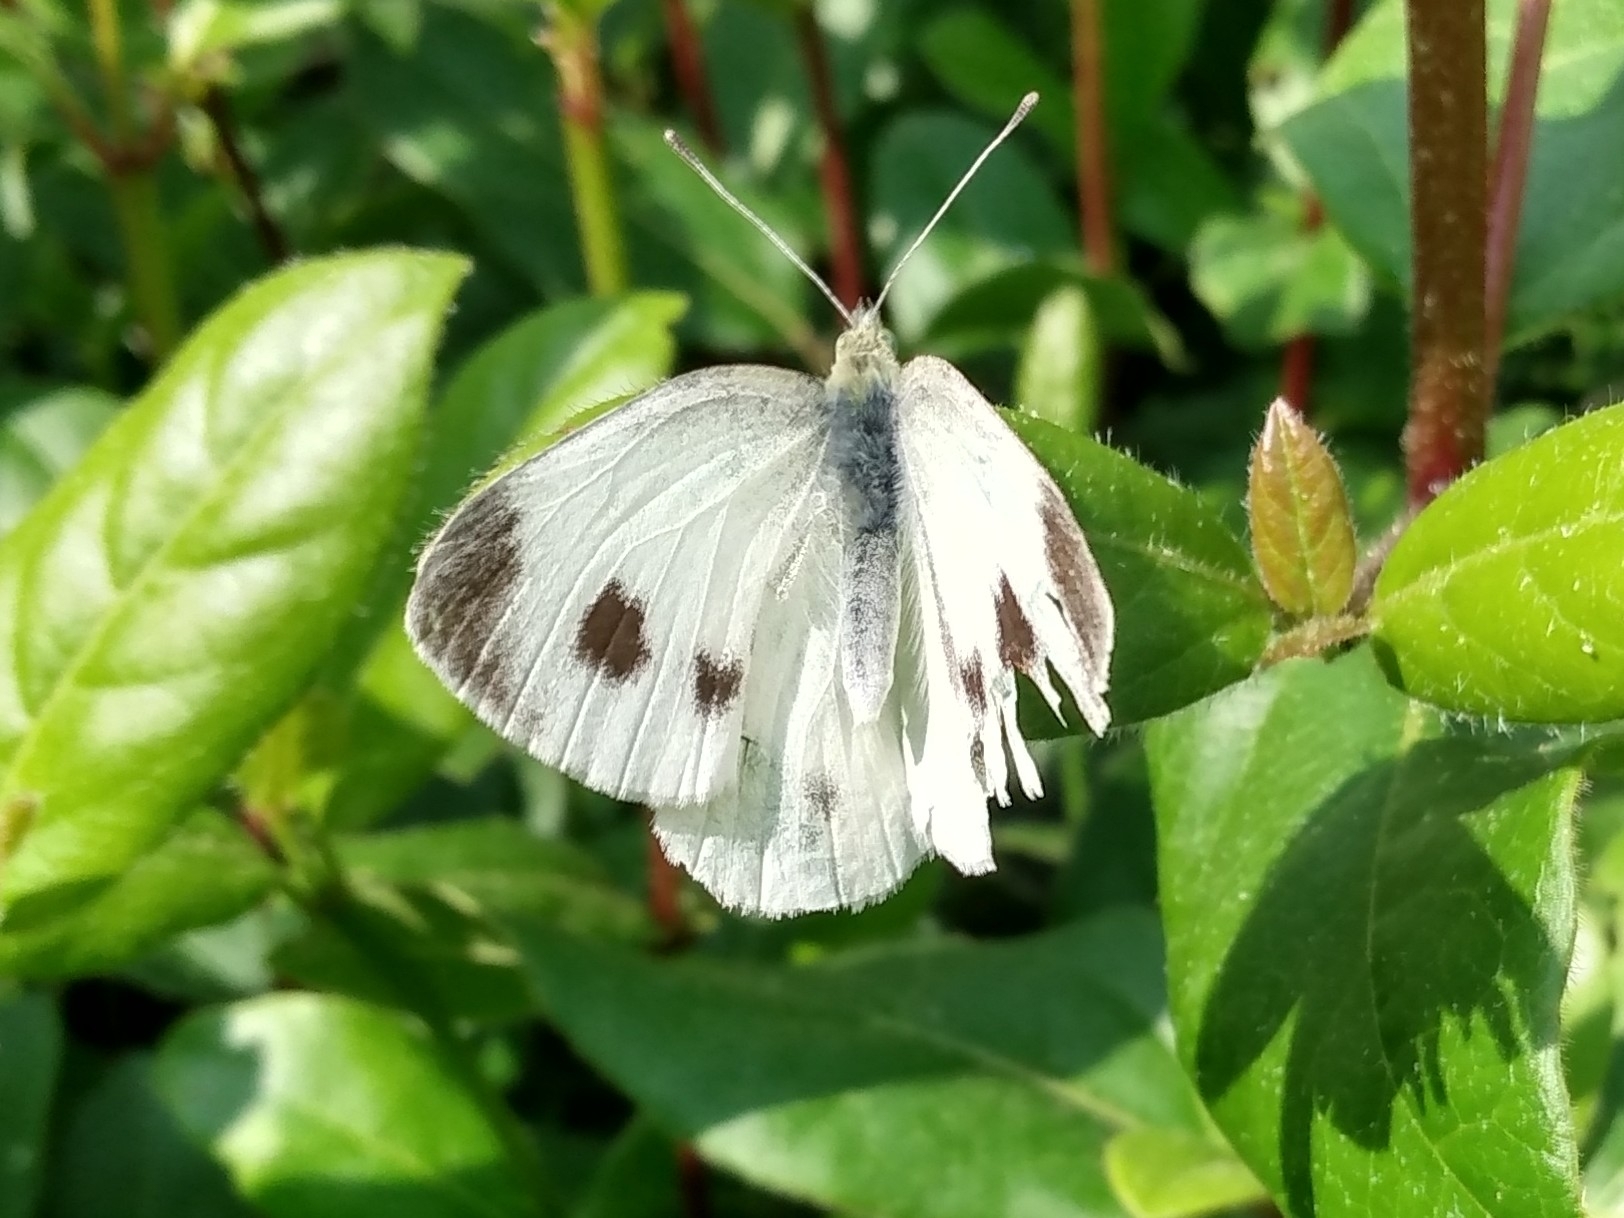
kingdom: Animalia
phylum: Arthropoda
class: Insecta
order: Lepidoptera
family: Pieridae
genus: Pieris
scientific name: Pieris mannii
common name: Southern small white
